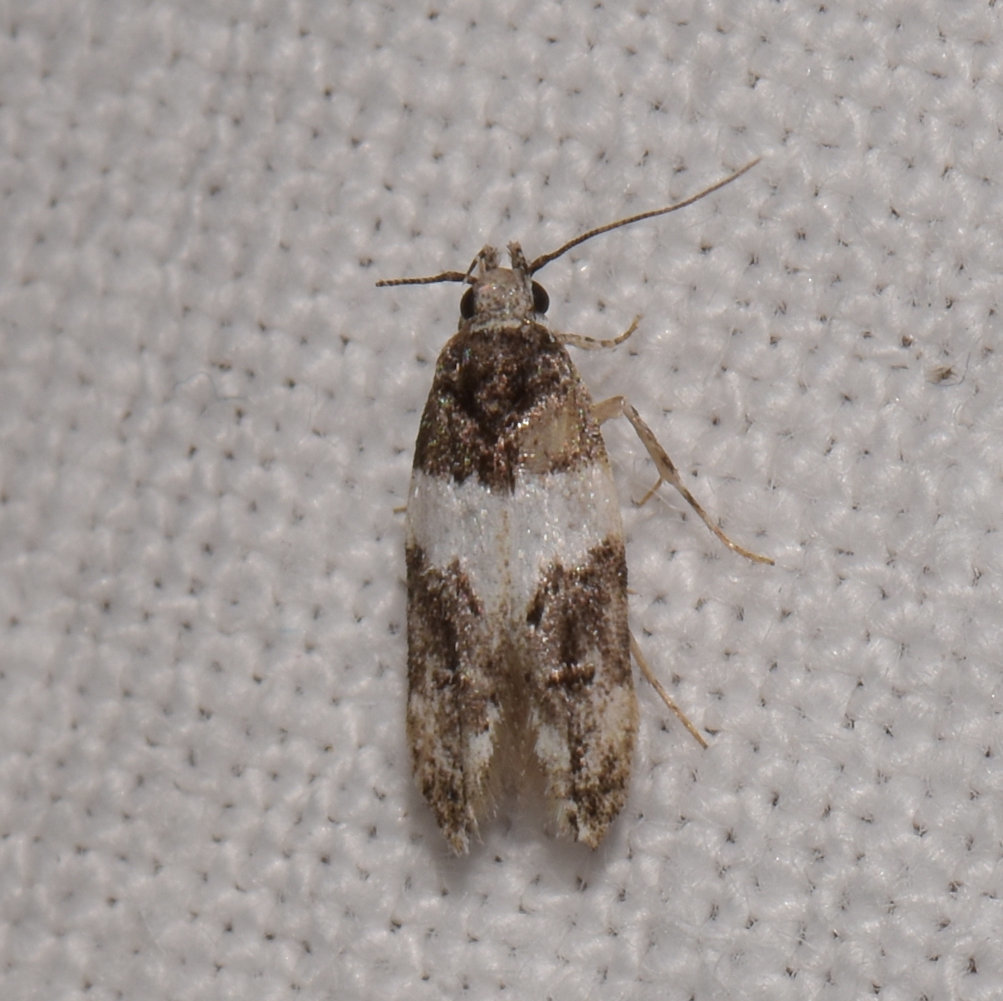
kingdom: Animalia
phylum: Arthropoda
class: Insecta
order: Lepidoptera
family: Gelechiidae
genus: Pubitelphusa
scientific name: Pubitelphusa latifasciella
